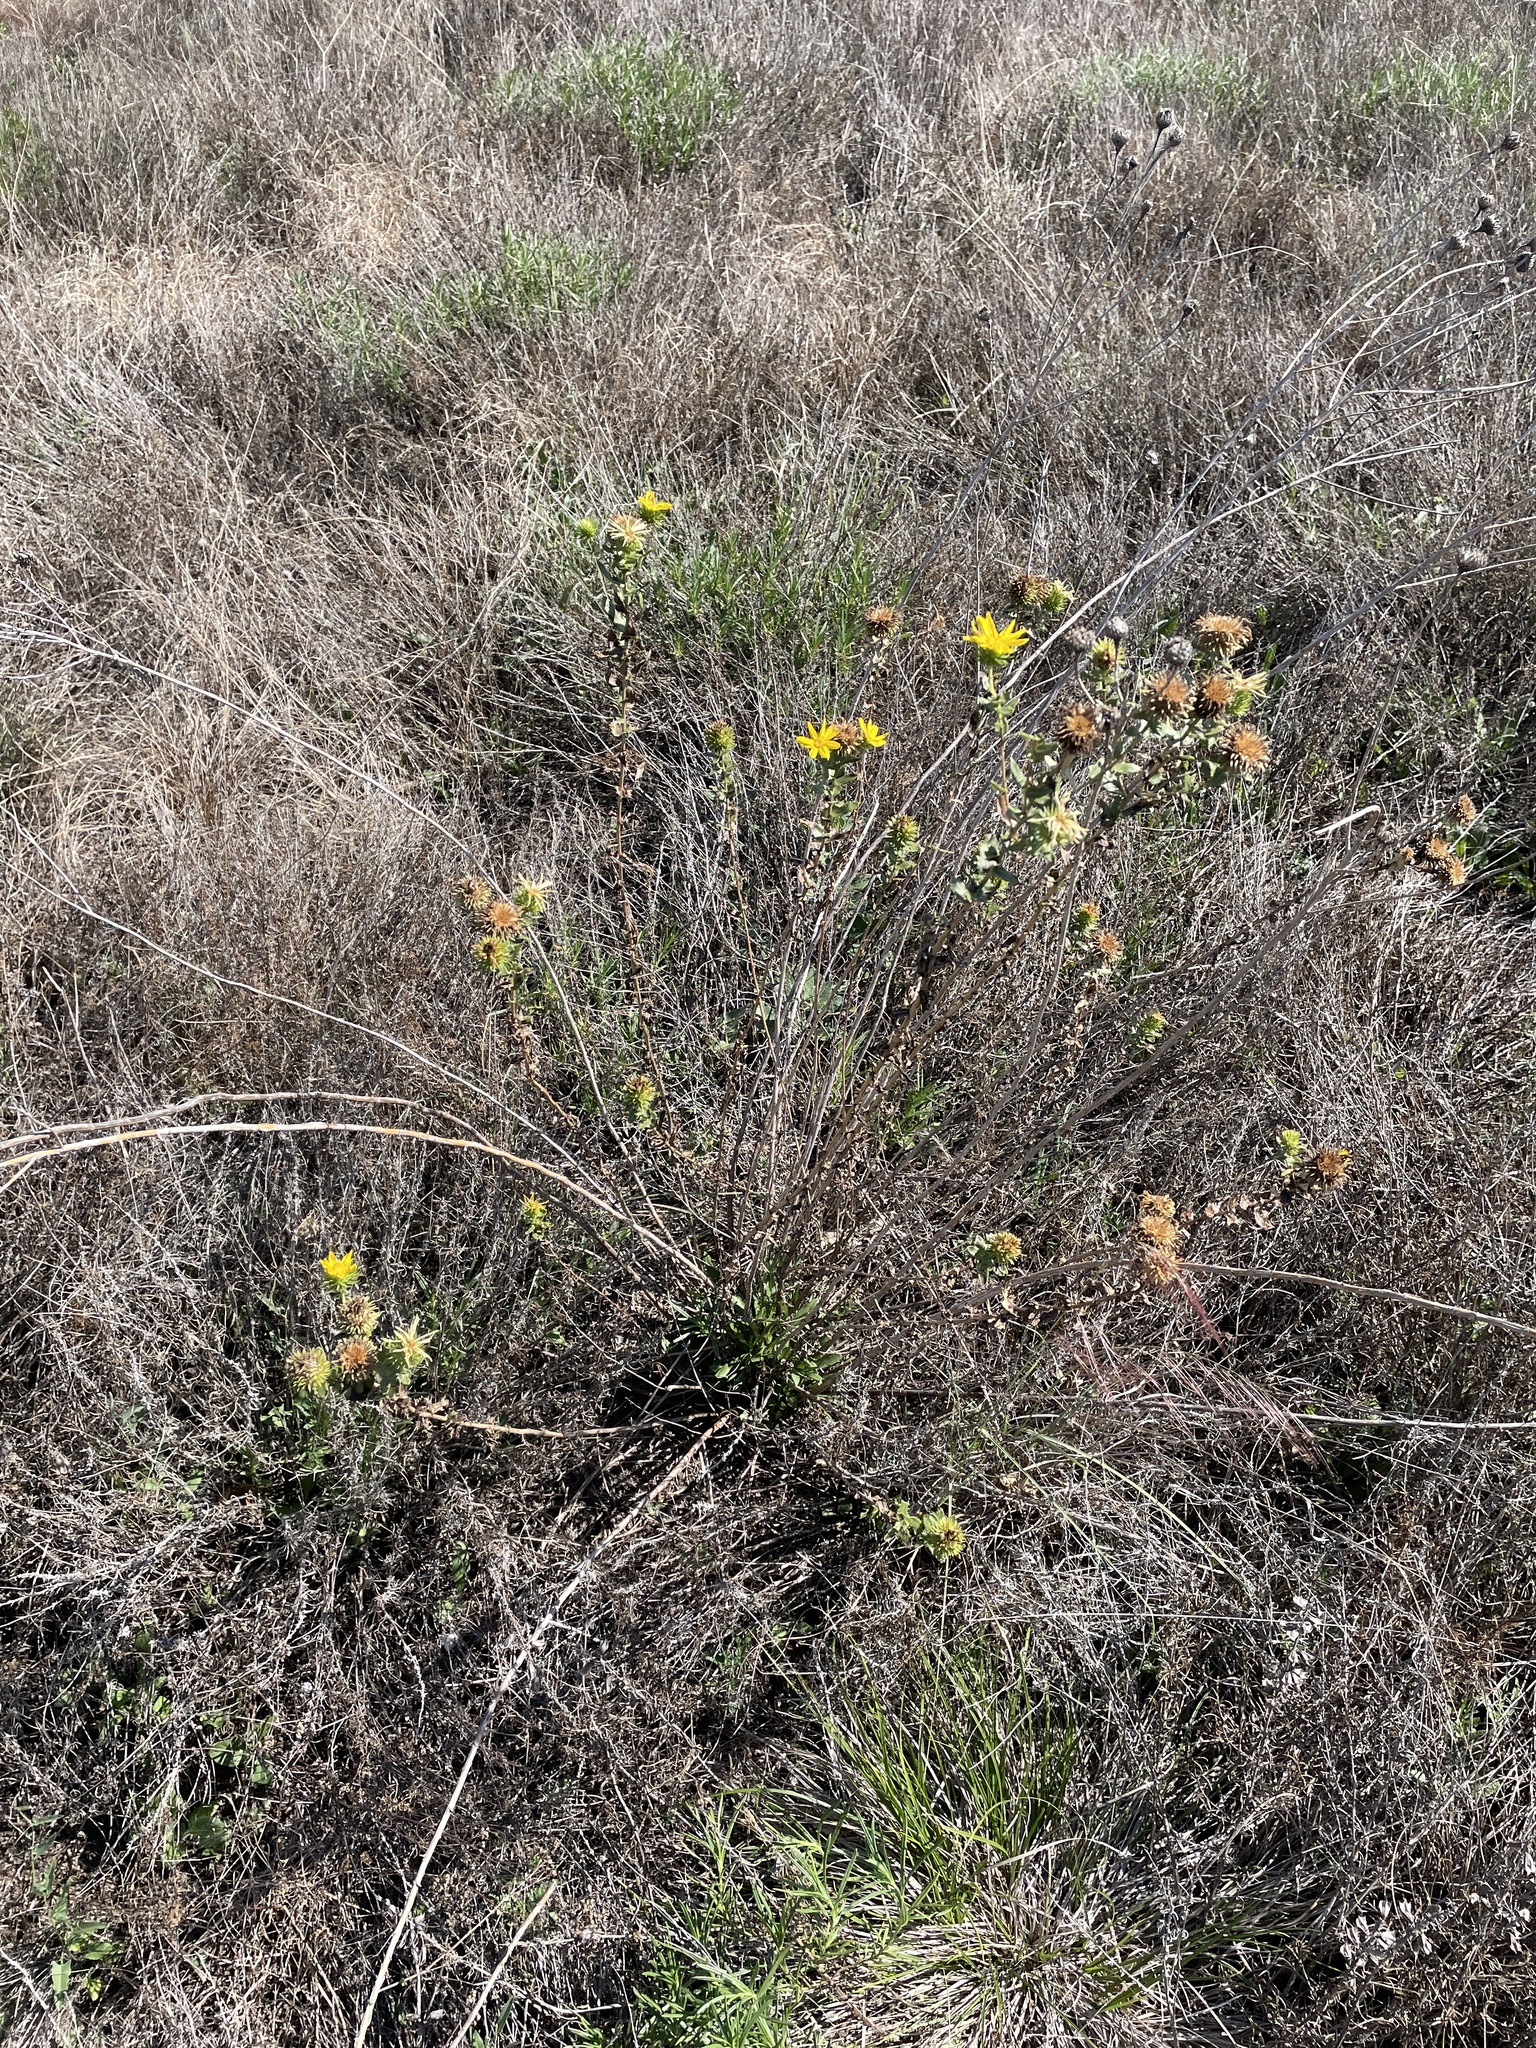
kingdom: Plantae
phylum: Tracheophyta
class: Magnoliopsida
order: Asterales
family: Asteraceae
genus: Grindelia
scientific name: Grindelia lanceolata
